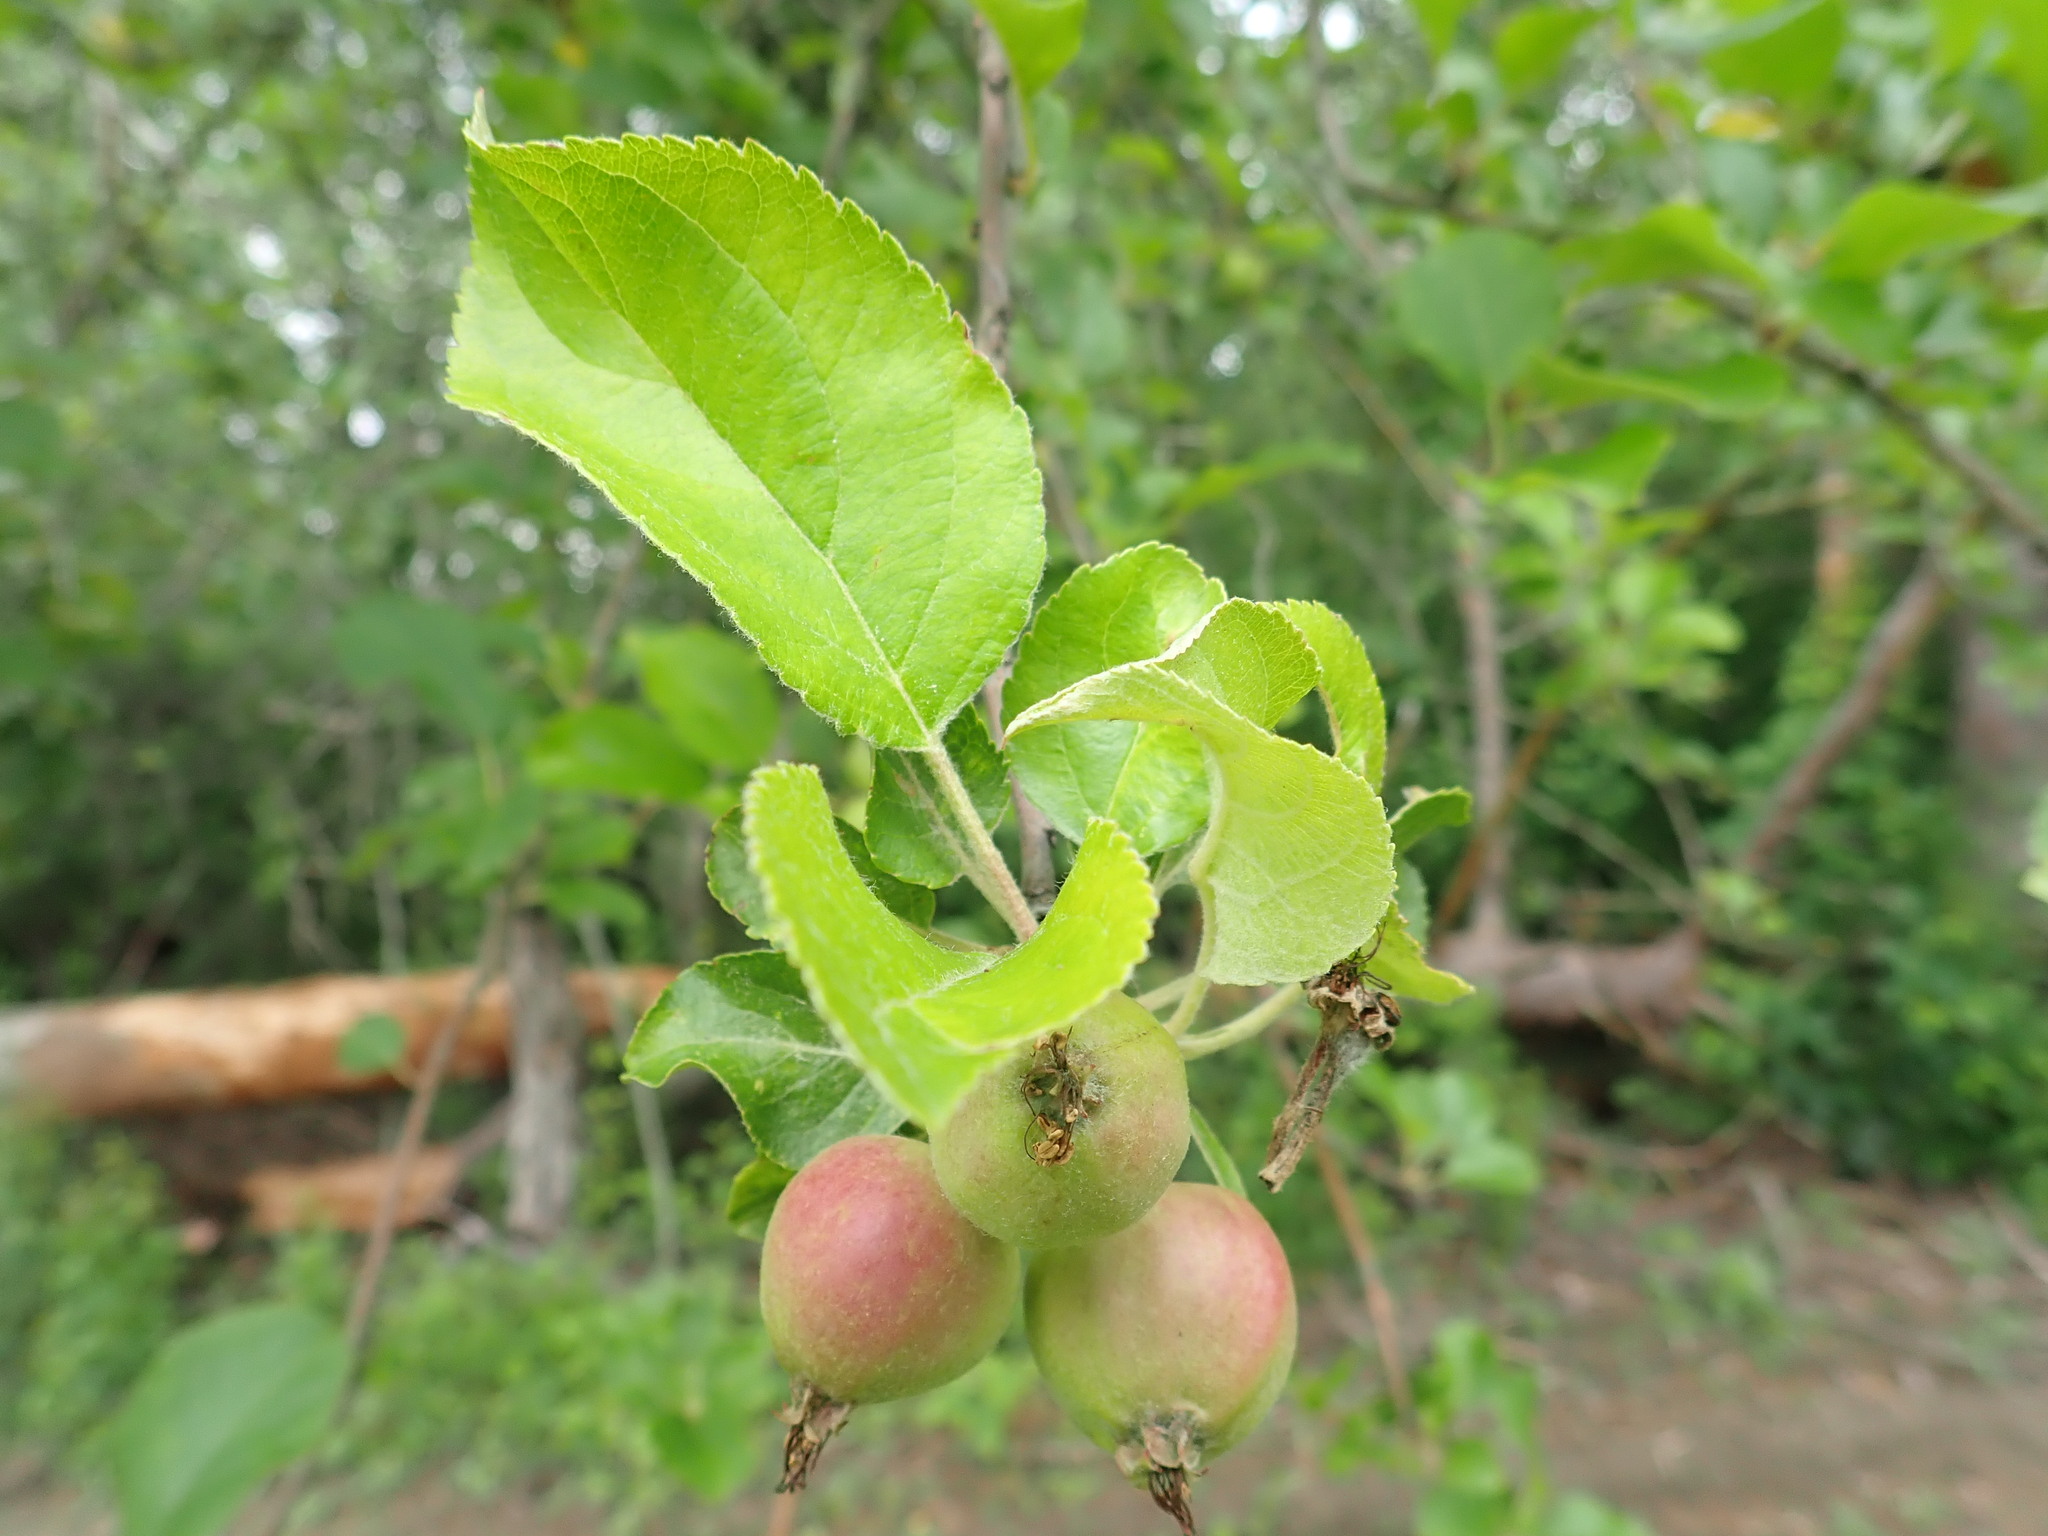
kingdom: Plantae
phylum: Tracheophyta
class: Magnoliopsida
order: Rosales
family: Rosaceae
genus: Malus
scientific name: Malus domestica
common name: Apple
